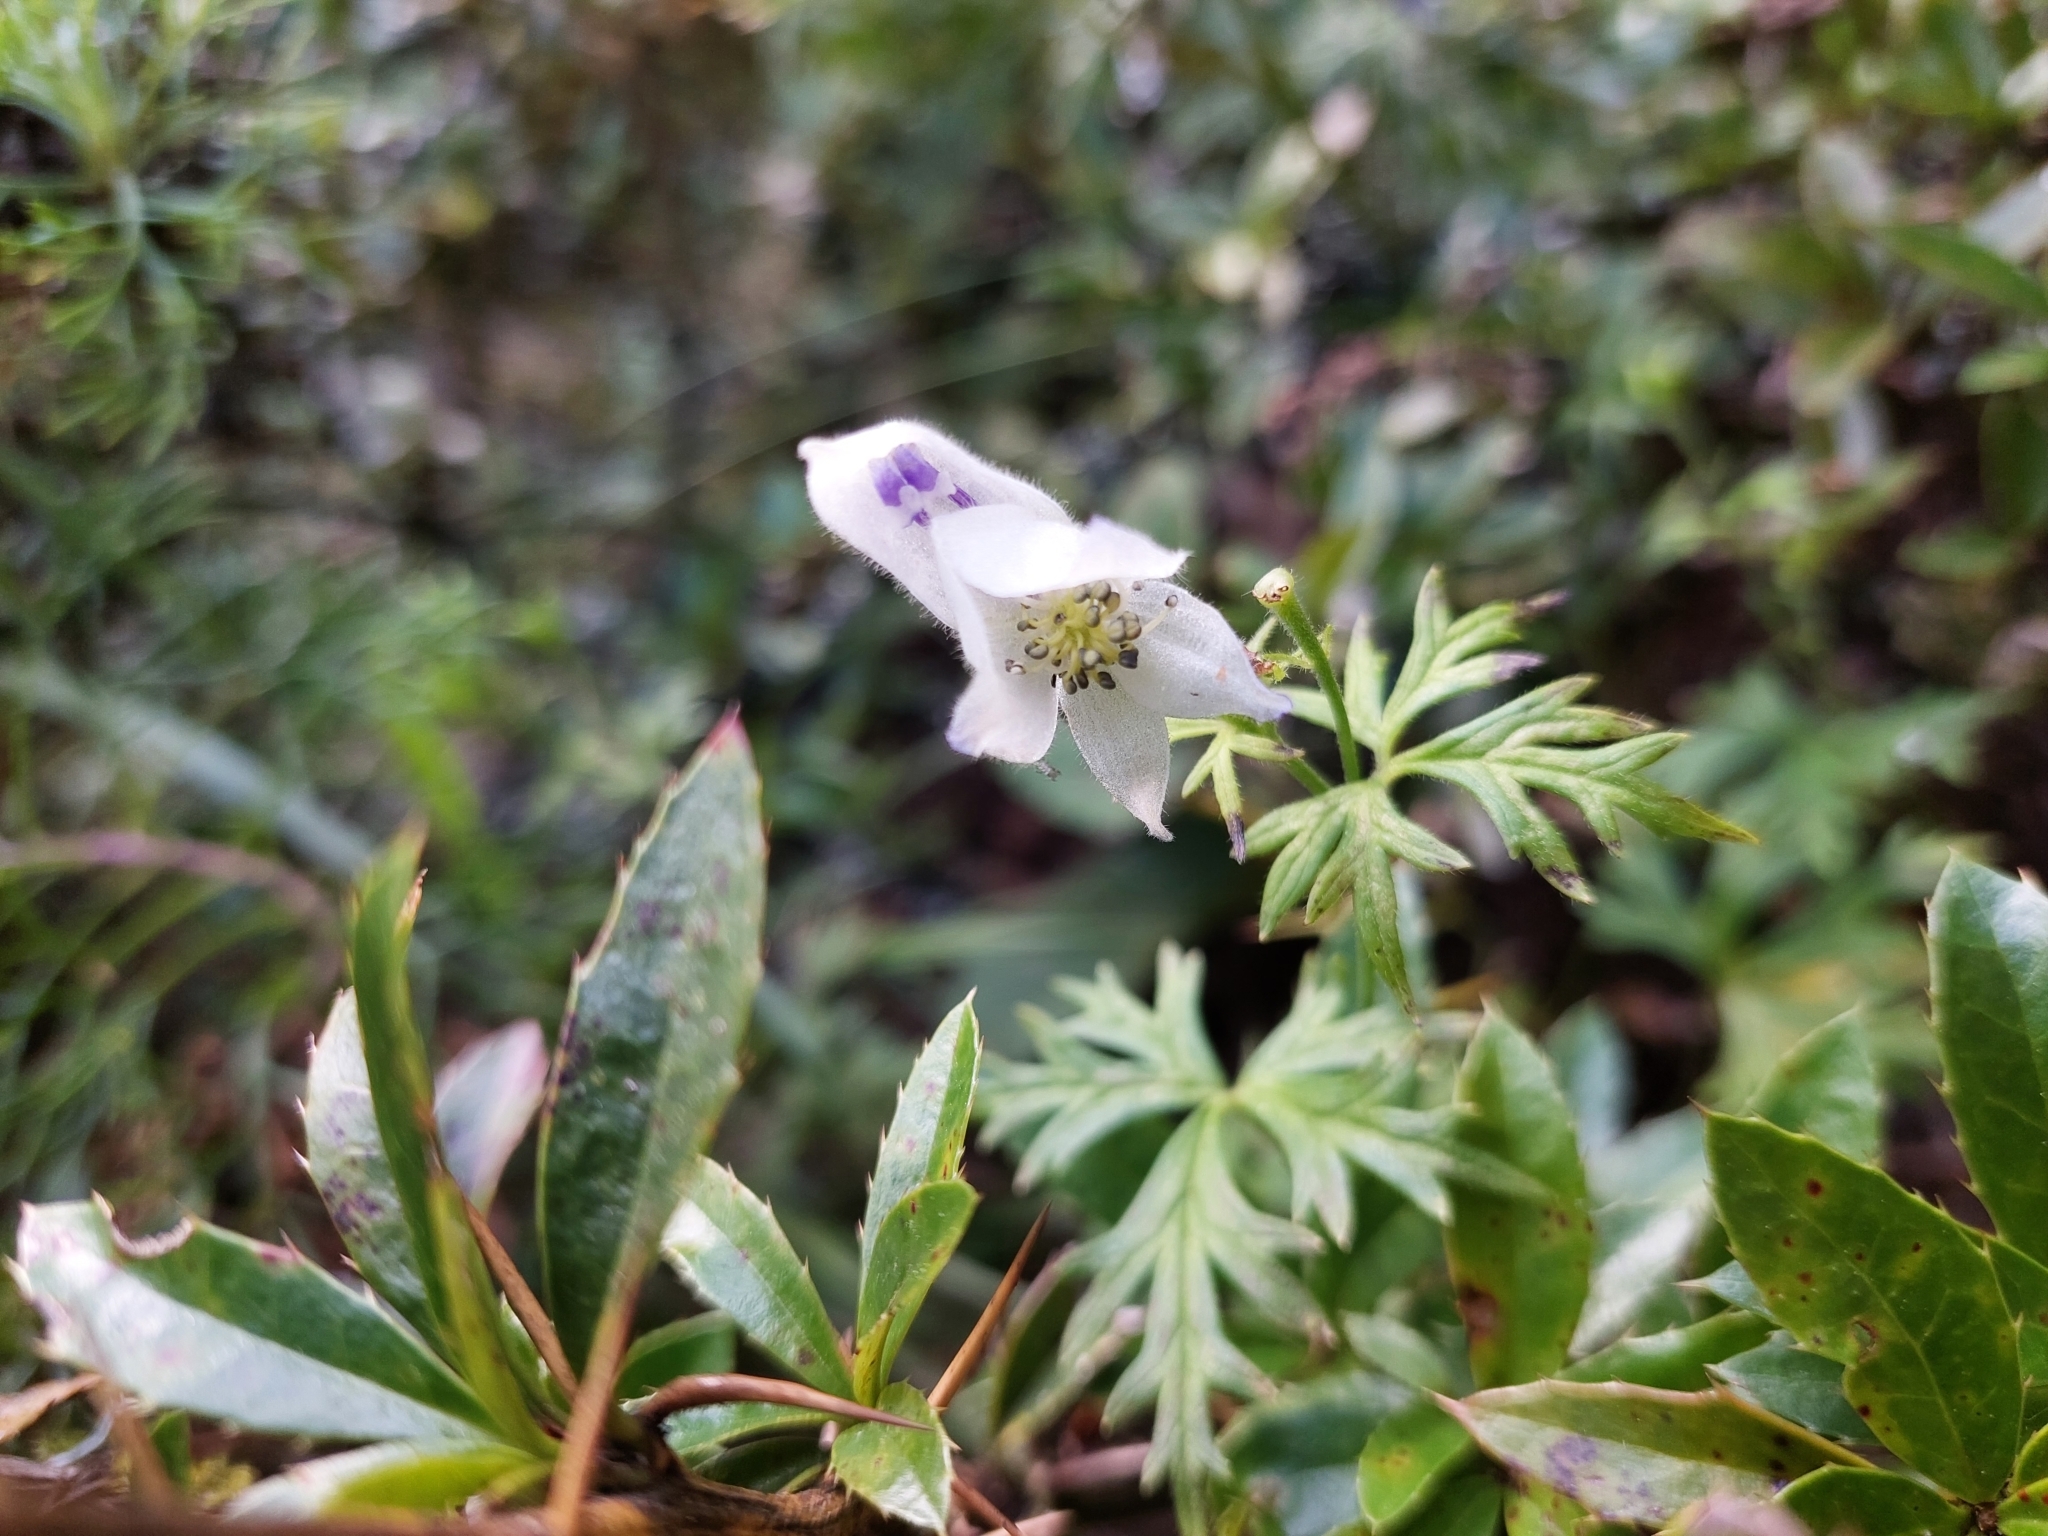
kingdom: Plantae
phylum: Tracheophyta
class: Magnoliopsida
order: Ranunculales
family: Ranunculaceae
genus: Aconitum
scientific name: Aconitum fukutomei
